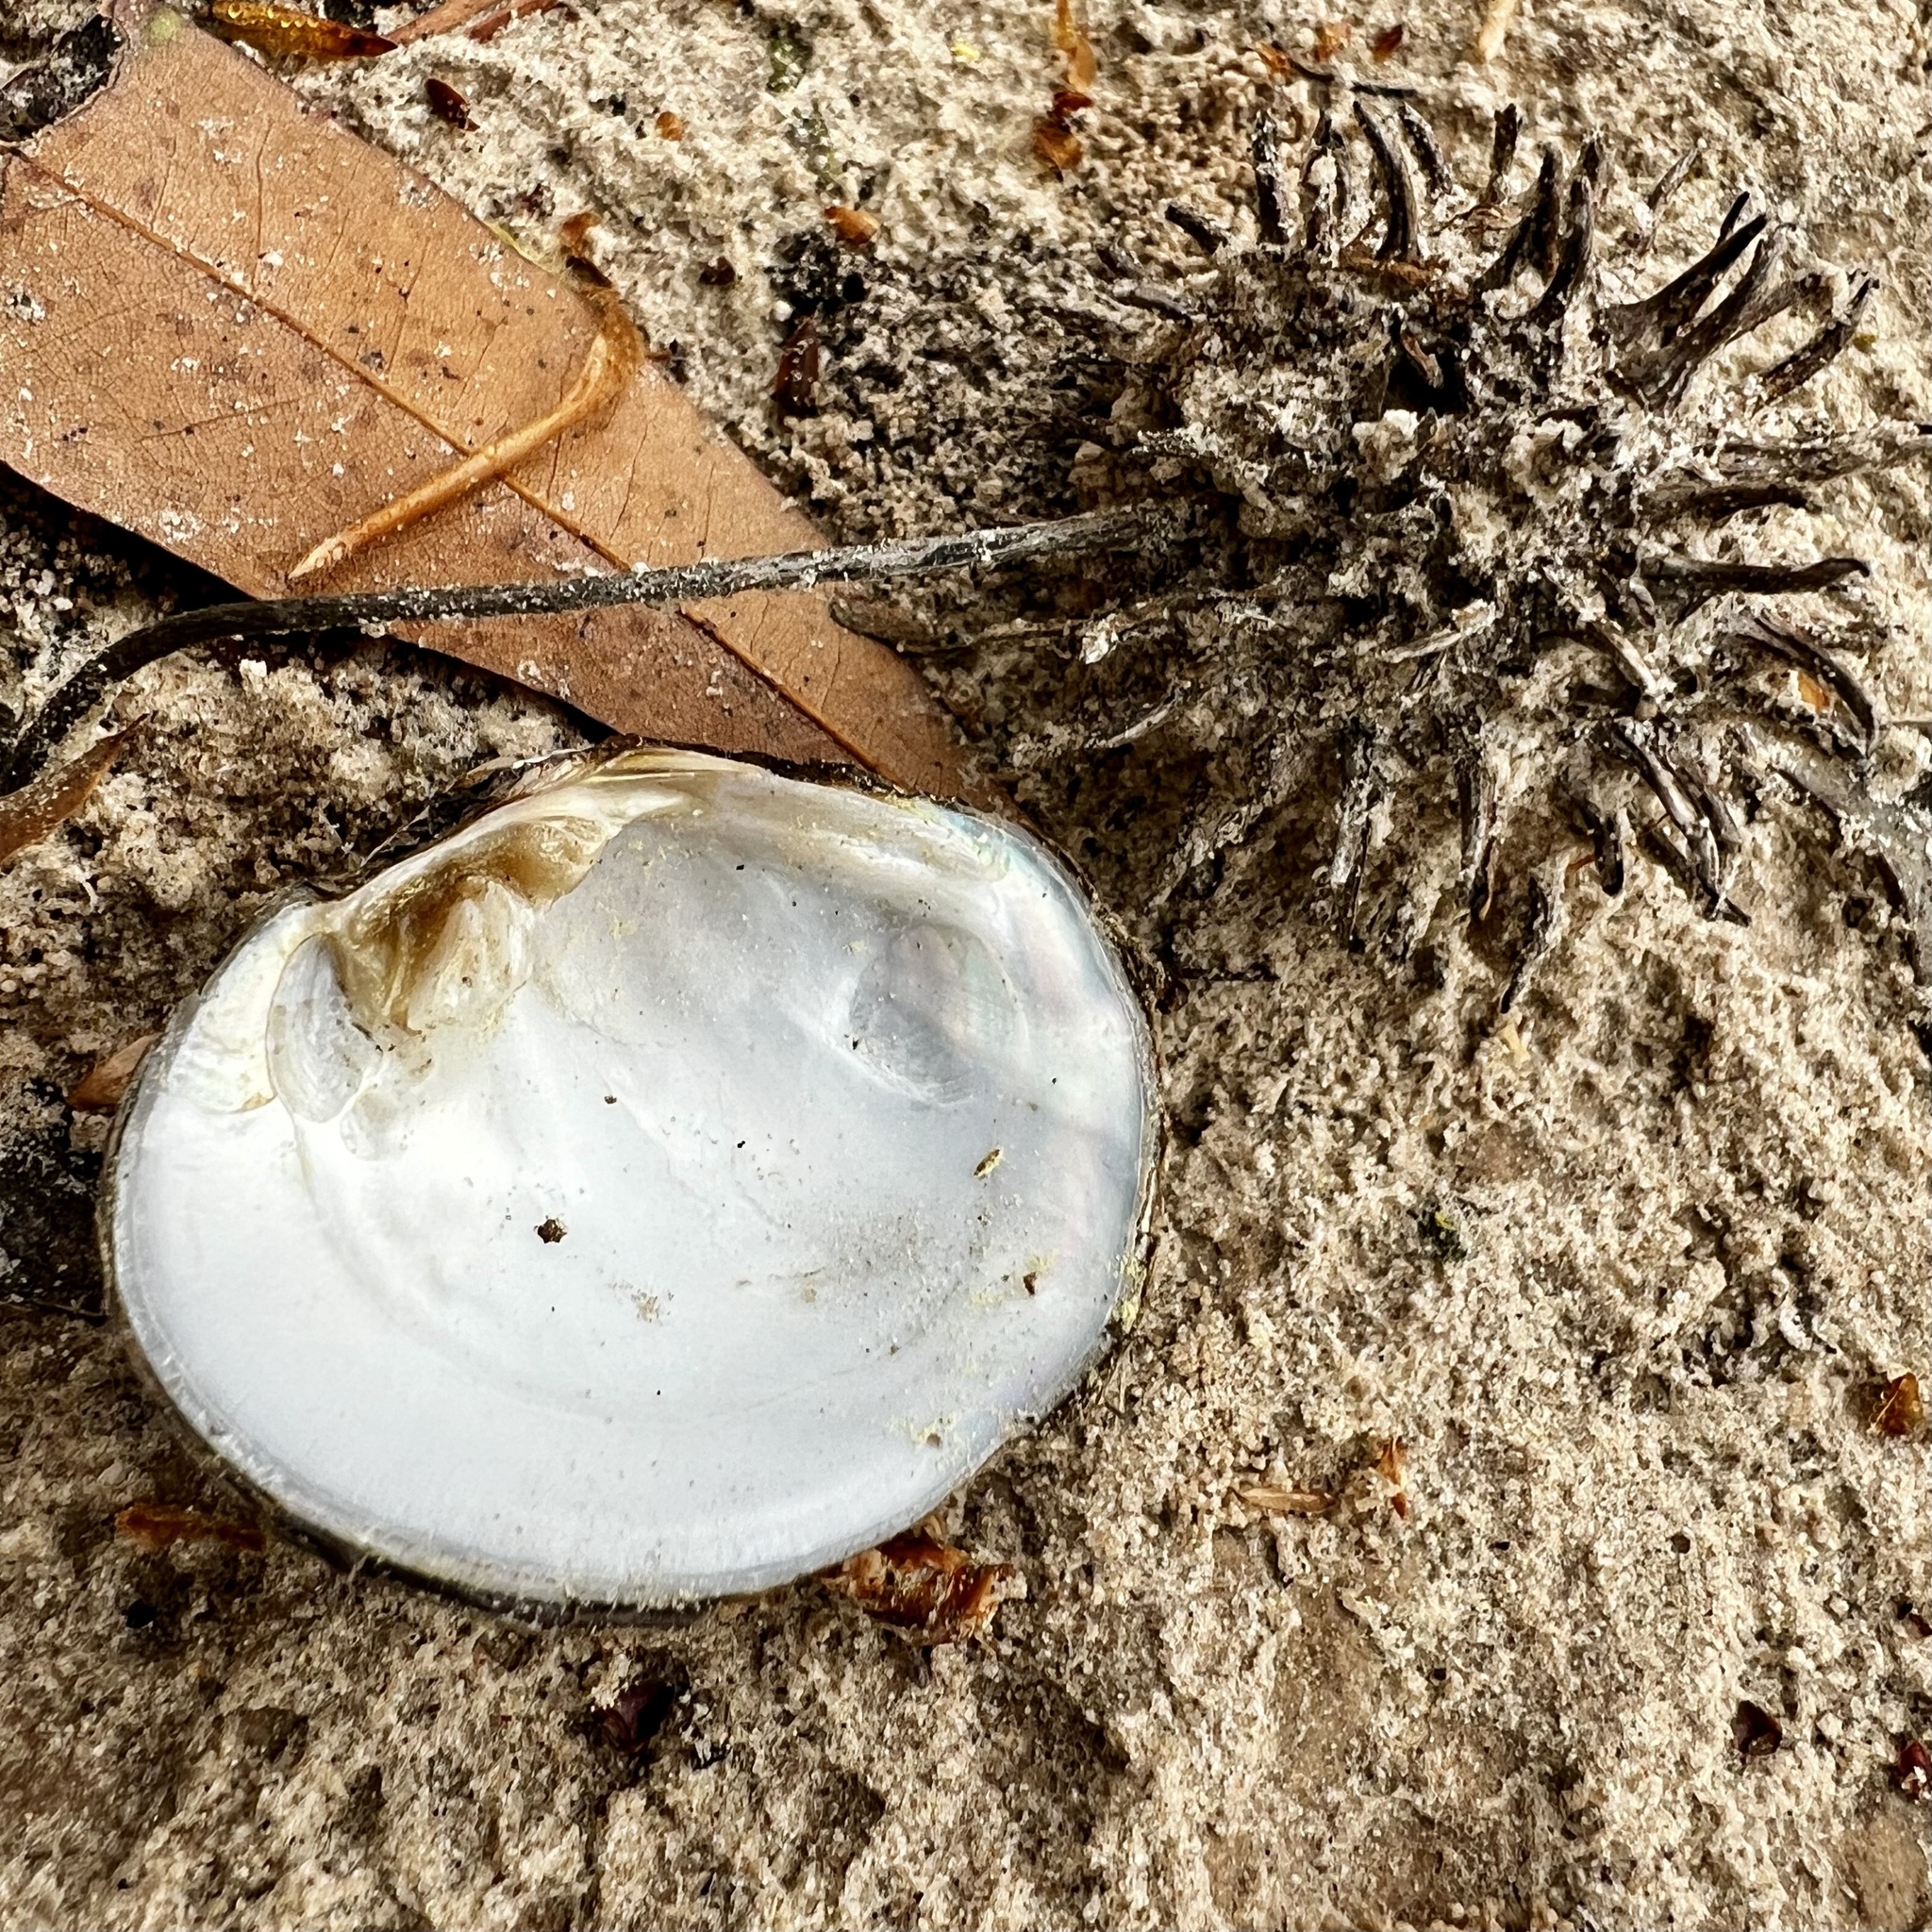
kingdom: Animalia
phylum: Mollusca
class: Bivalvia
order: Unionida
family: Unionidae
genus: Cyclonaias
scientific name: Cyclonaias nodulata
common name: Wartyback
